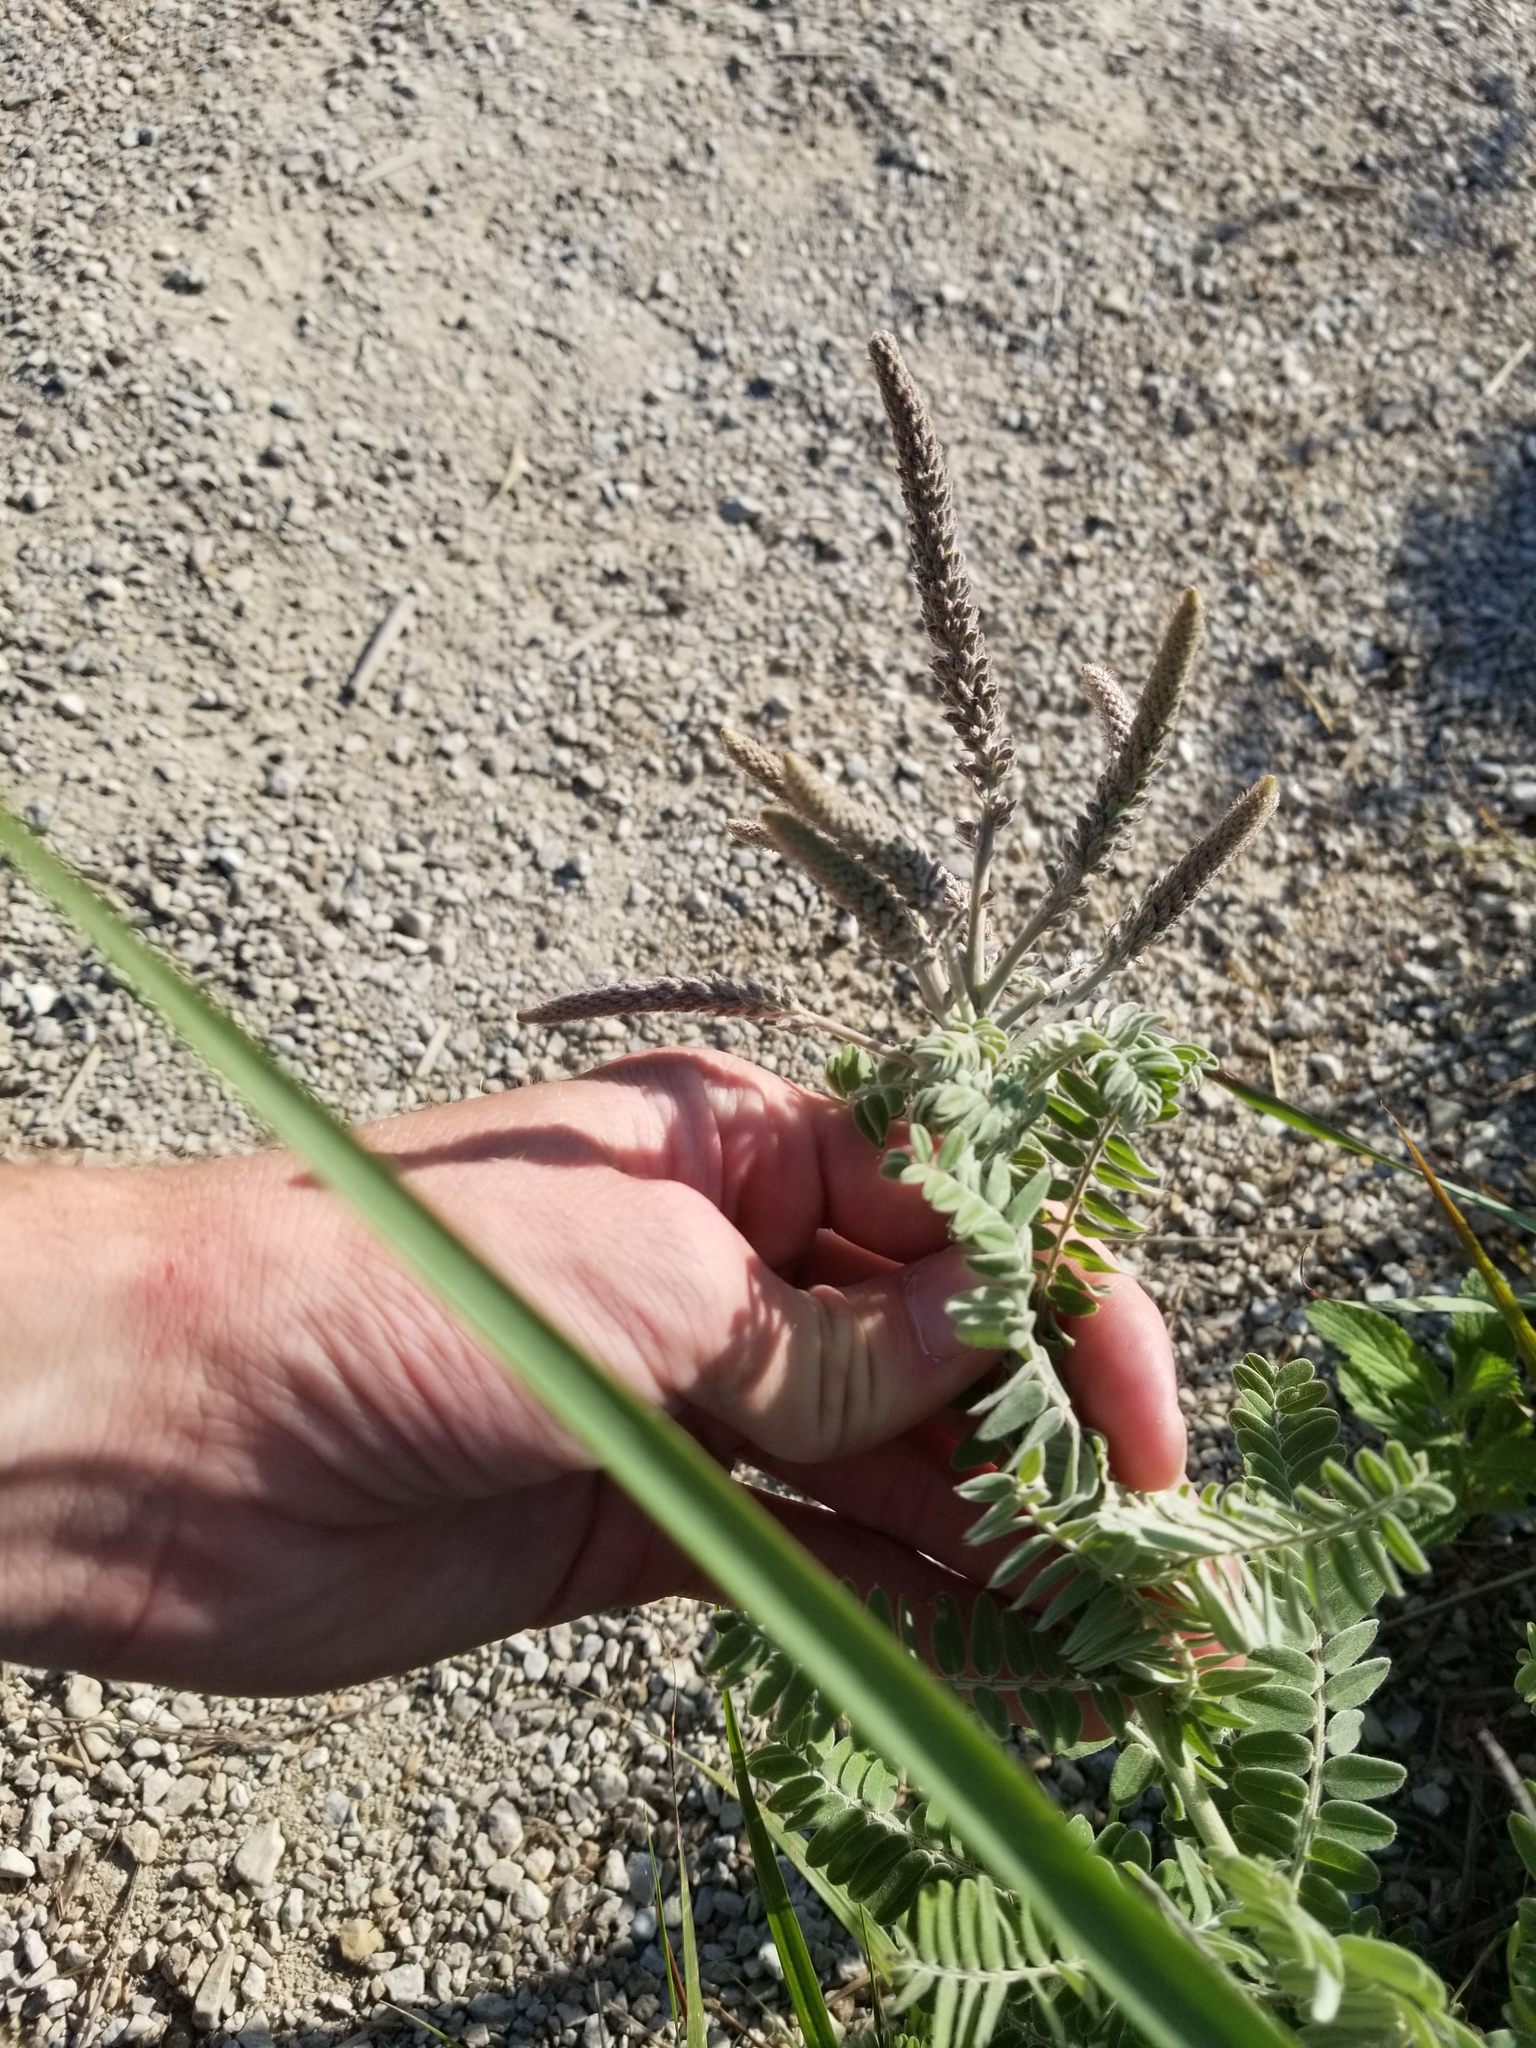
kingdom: Plantae
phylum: Tracheophyta
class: Magnoliopsida
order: Fabales
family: Fabaceae
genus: Amorpha
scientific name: Amorpha canescens
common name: Leadplant
